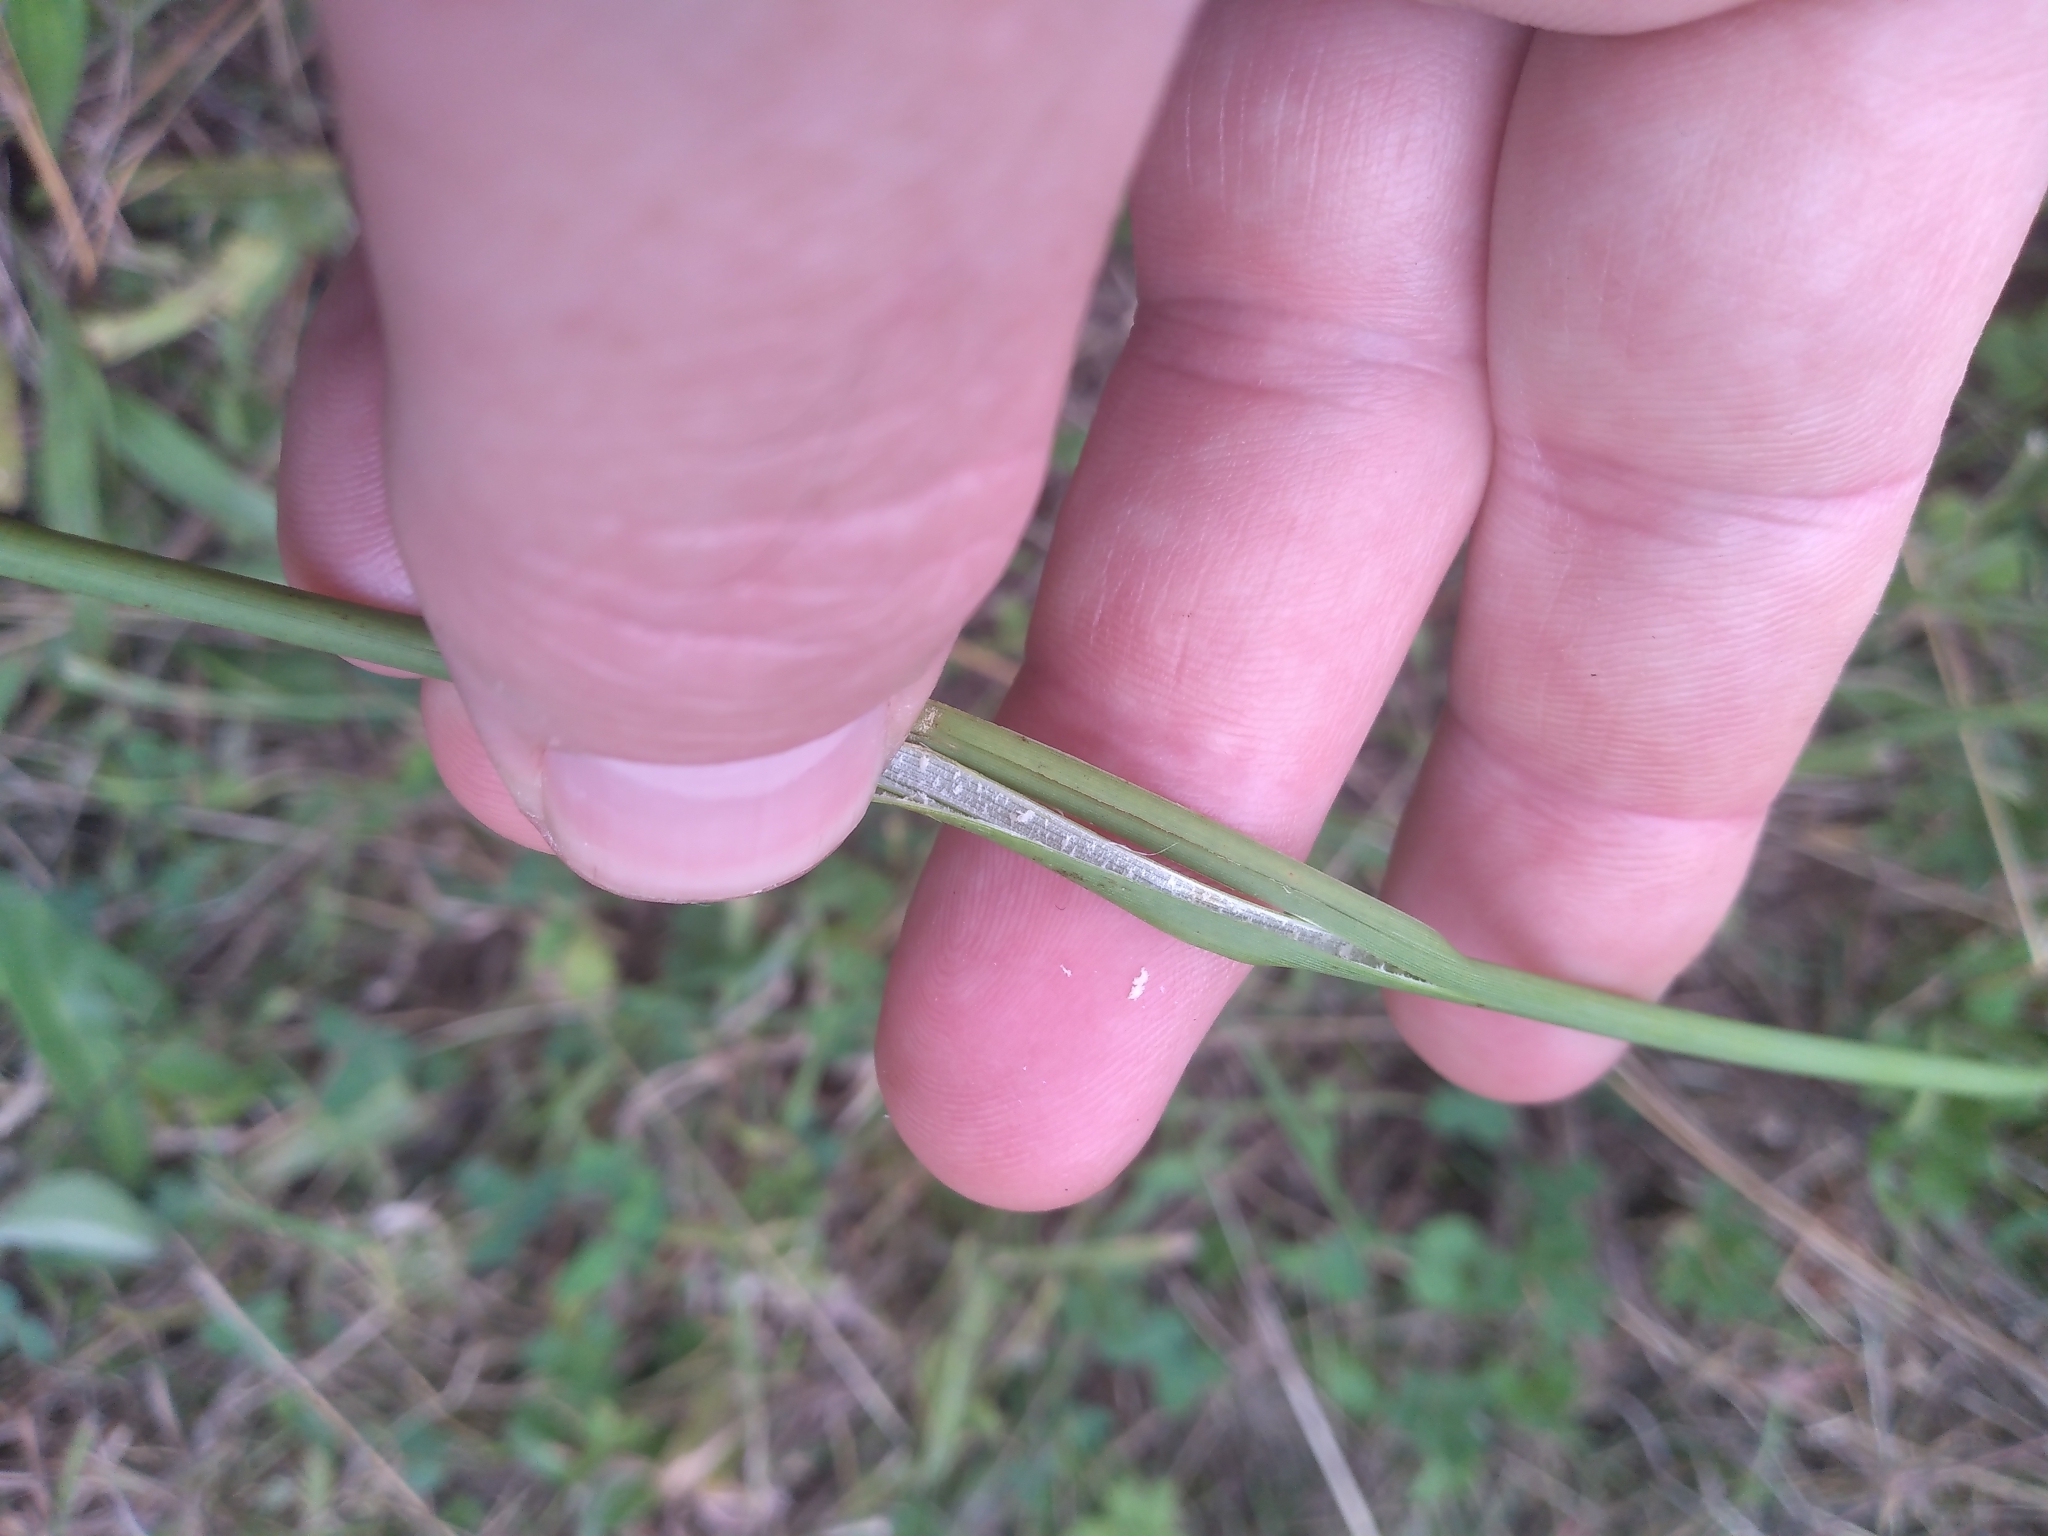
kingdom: Plantae
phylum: Tracheophyta
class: Liliopsida
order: Poales
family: Juncaceae
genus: Juncus
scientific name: Juncus australis
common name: Austral rush
